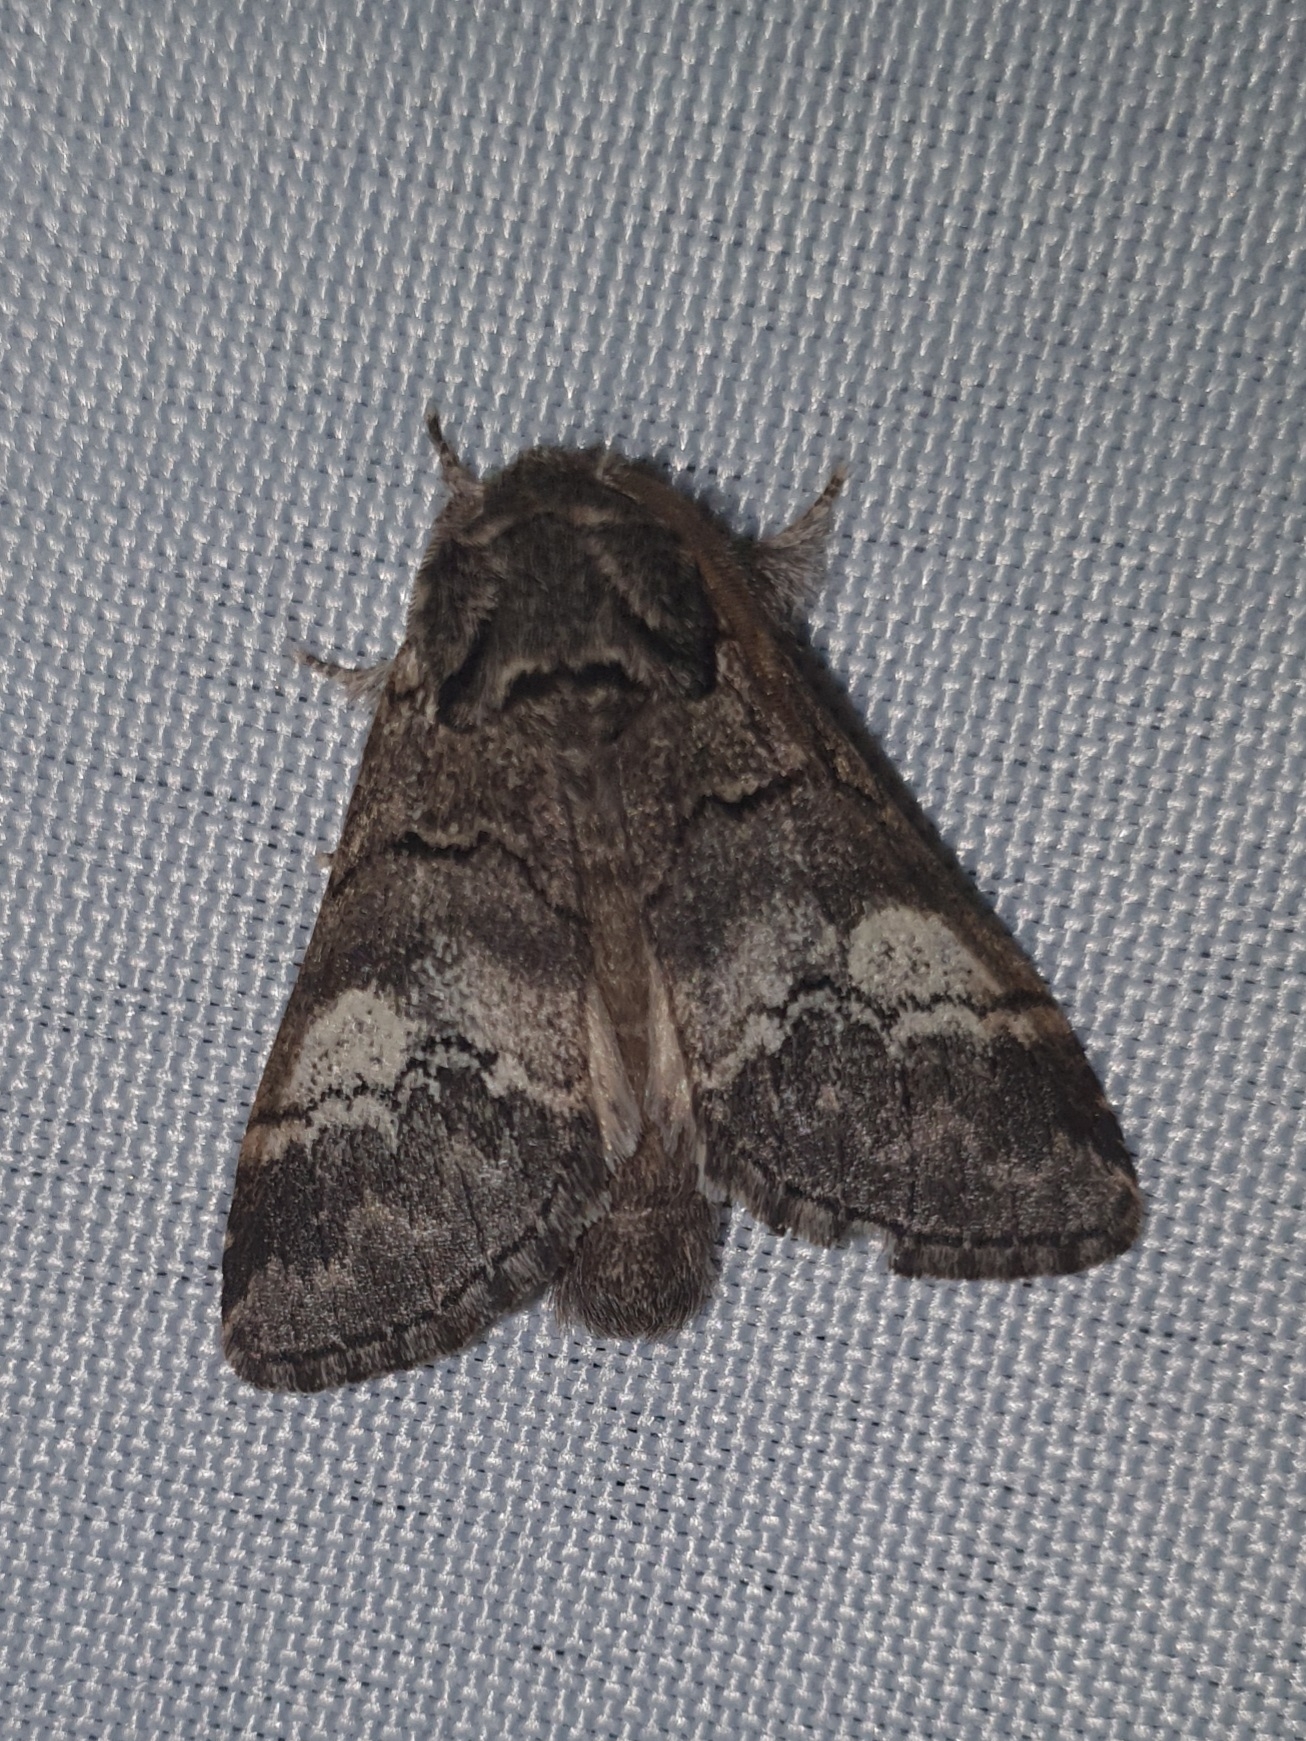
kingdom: Animalia
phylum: Arthropoda
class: Insecta
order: Lepidoptera
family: Notodontidae
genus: Drymonia
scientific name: Drymonia querna
